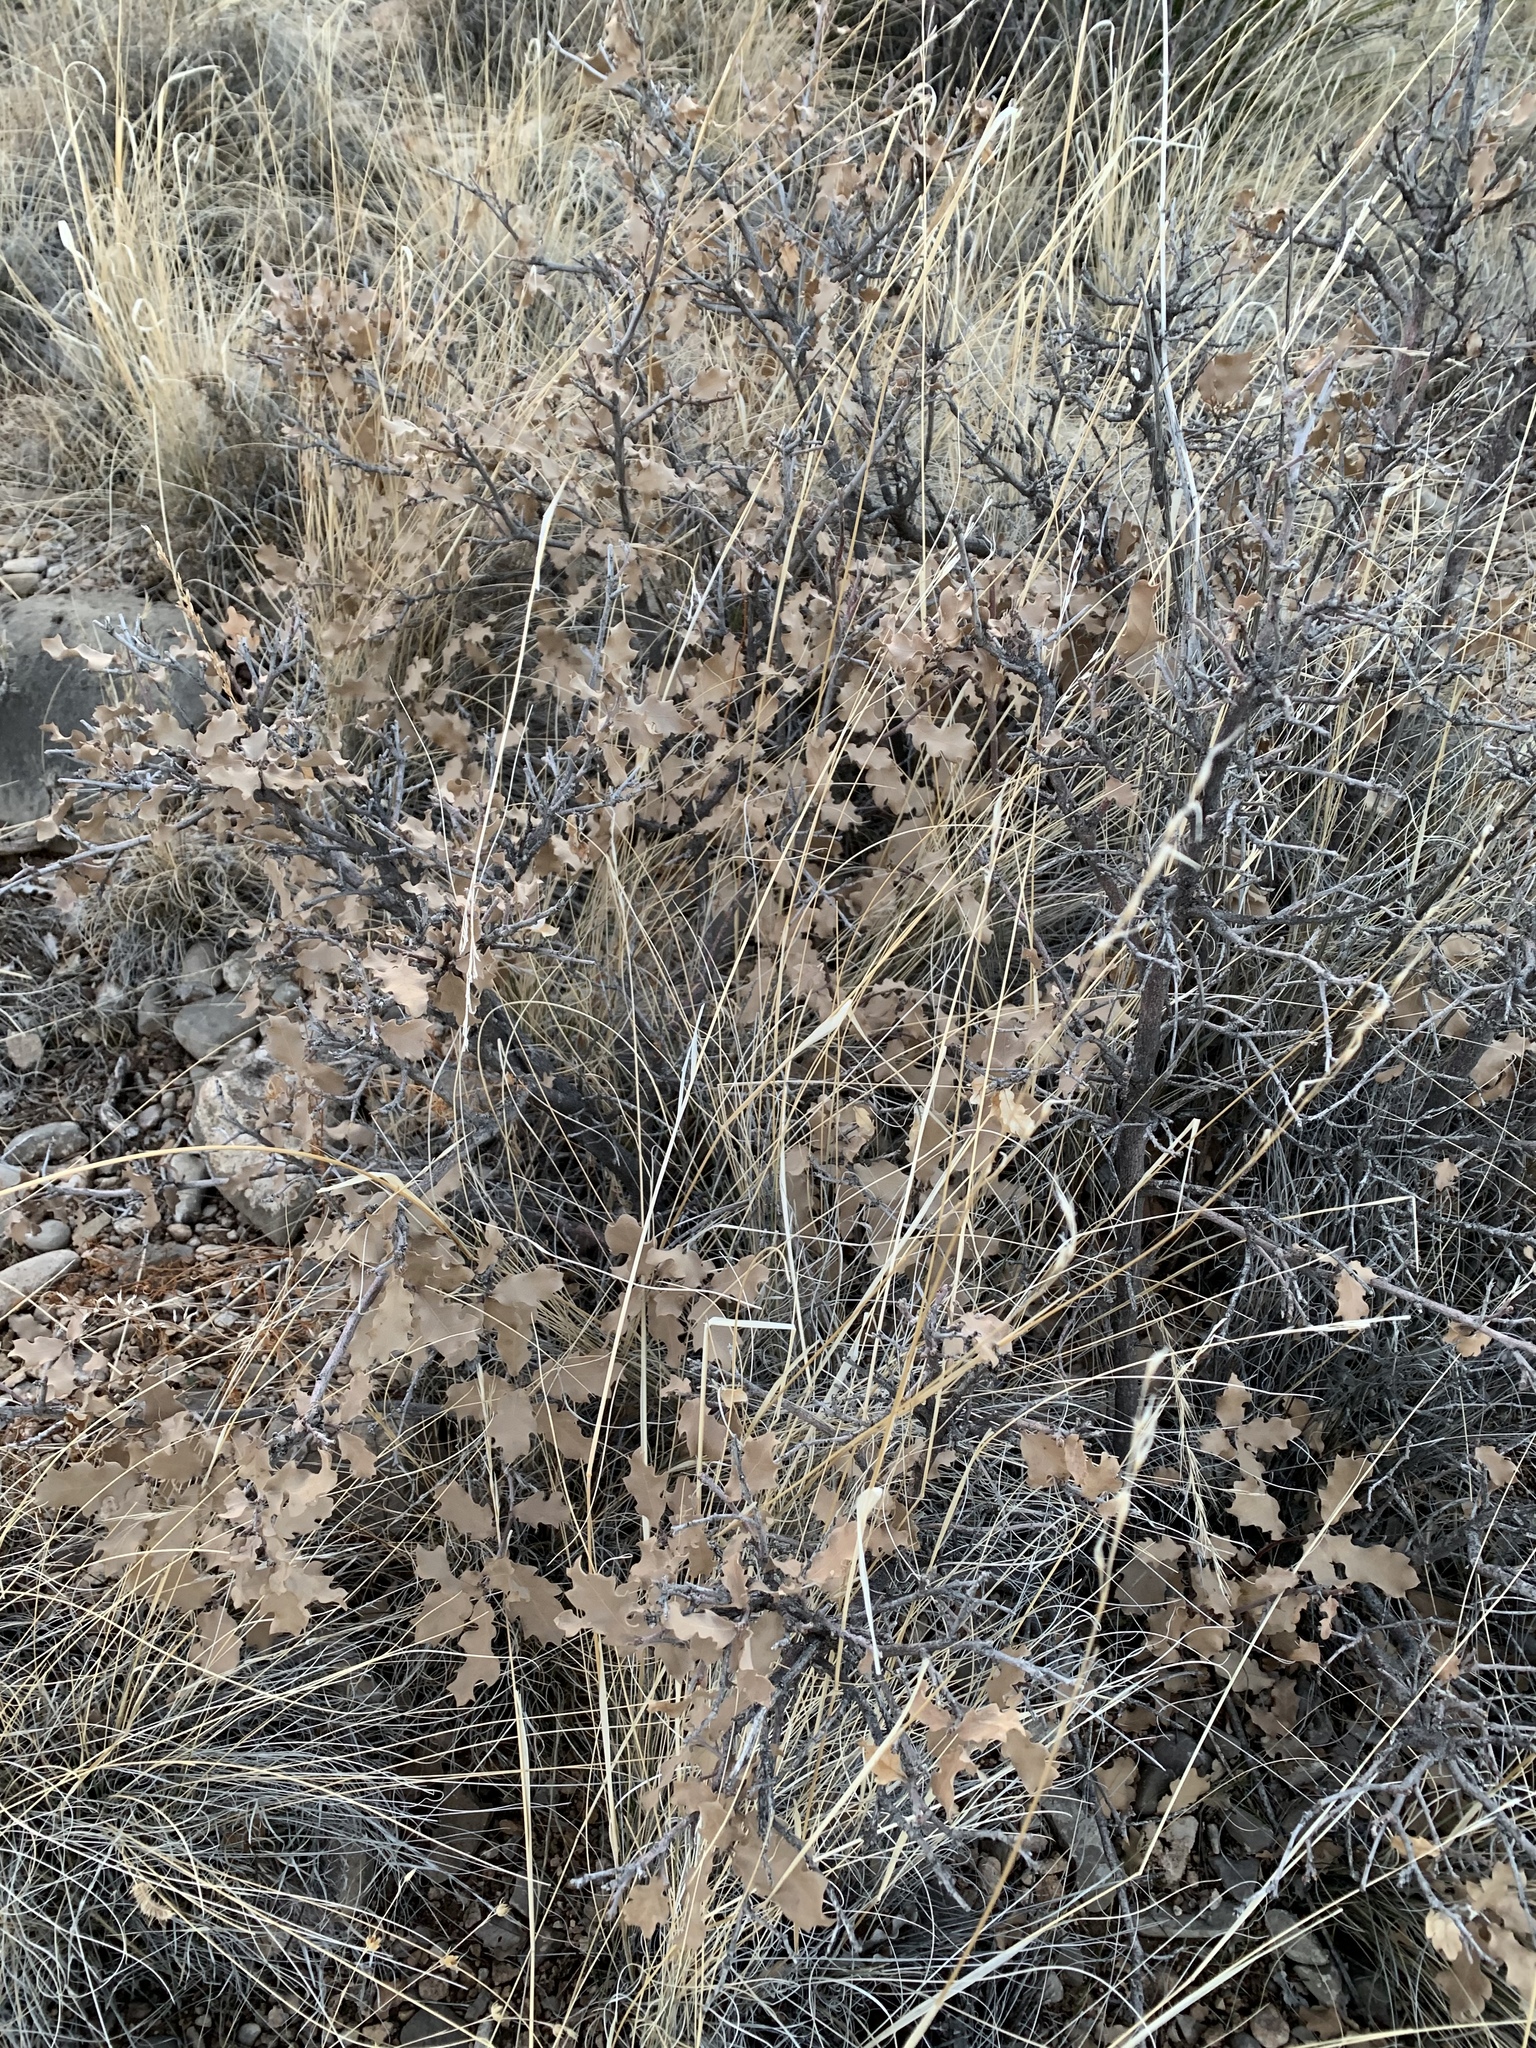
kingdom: Plantae
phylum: Tracheophyta
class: Magnoliopsida
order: Fagales
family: Fagaceae
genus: Quercus
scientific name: Quercus undulata
